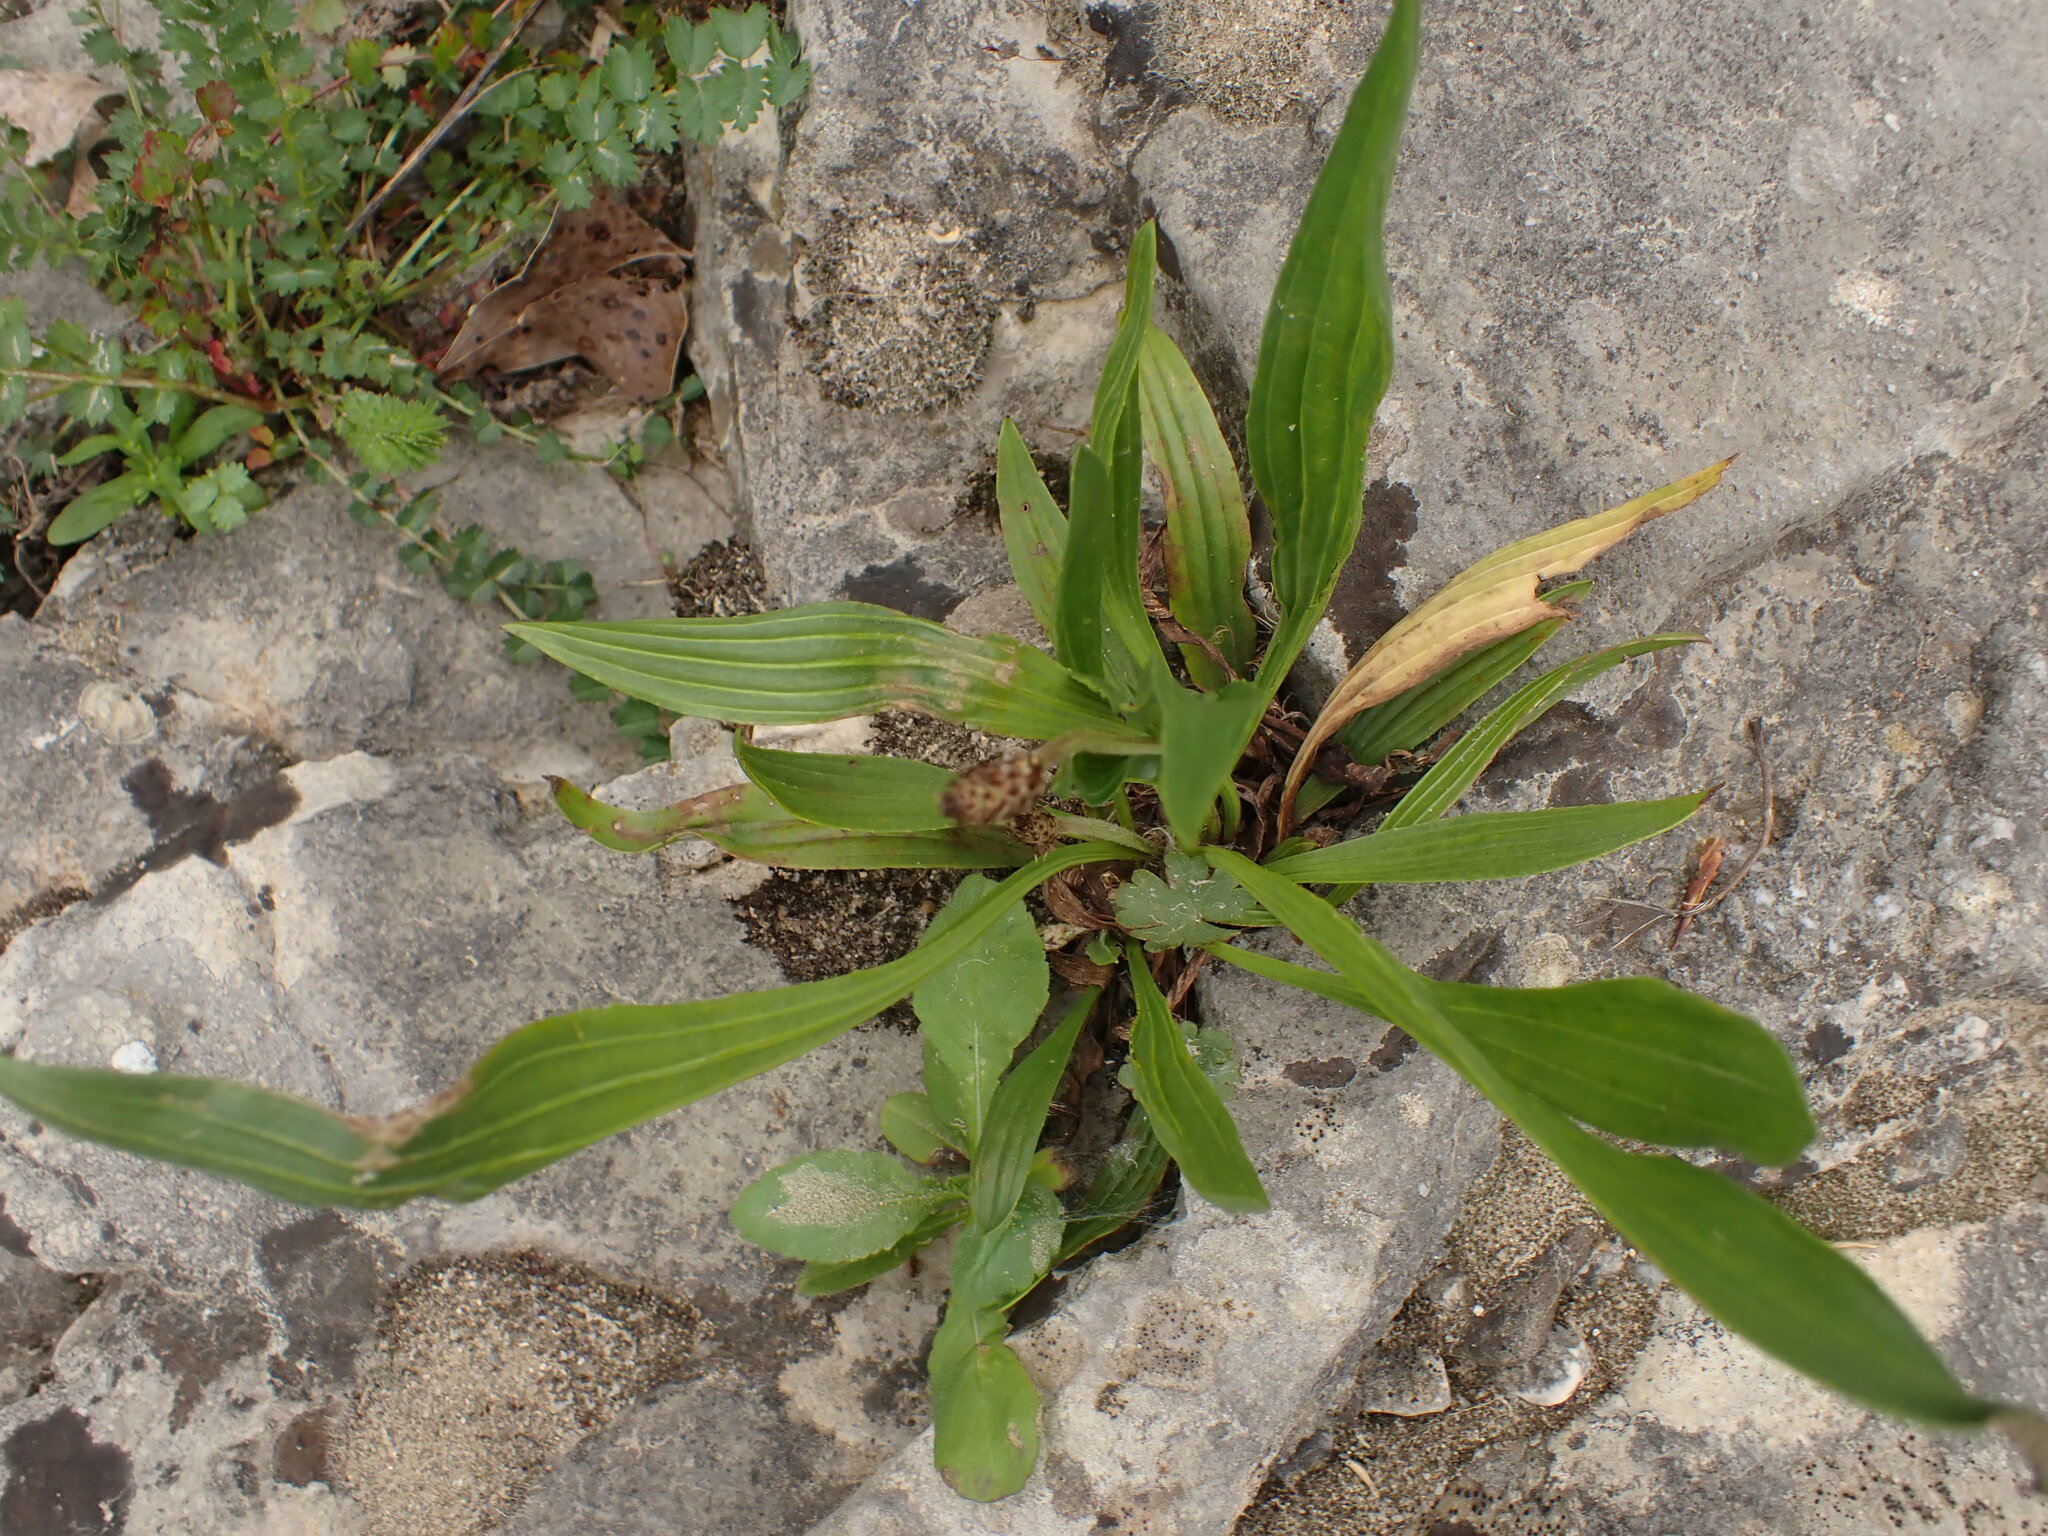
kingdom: Plantae
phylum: Tracheophyta
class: Magnoliopsida
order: Lamiales
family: Plantaginaceae
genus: Plantago
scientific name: Plantago lanceolata
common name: Ribwort plantain
